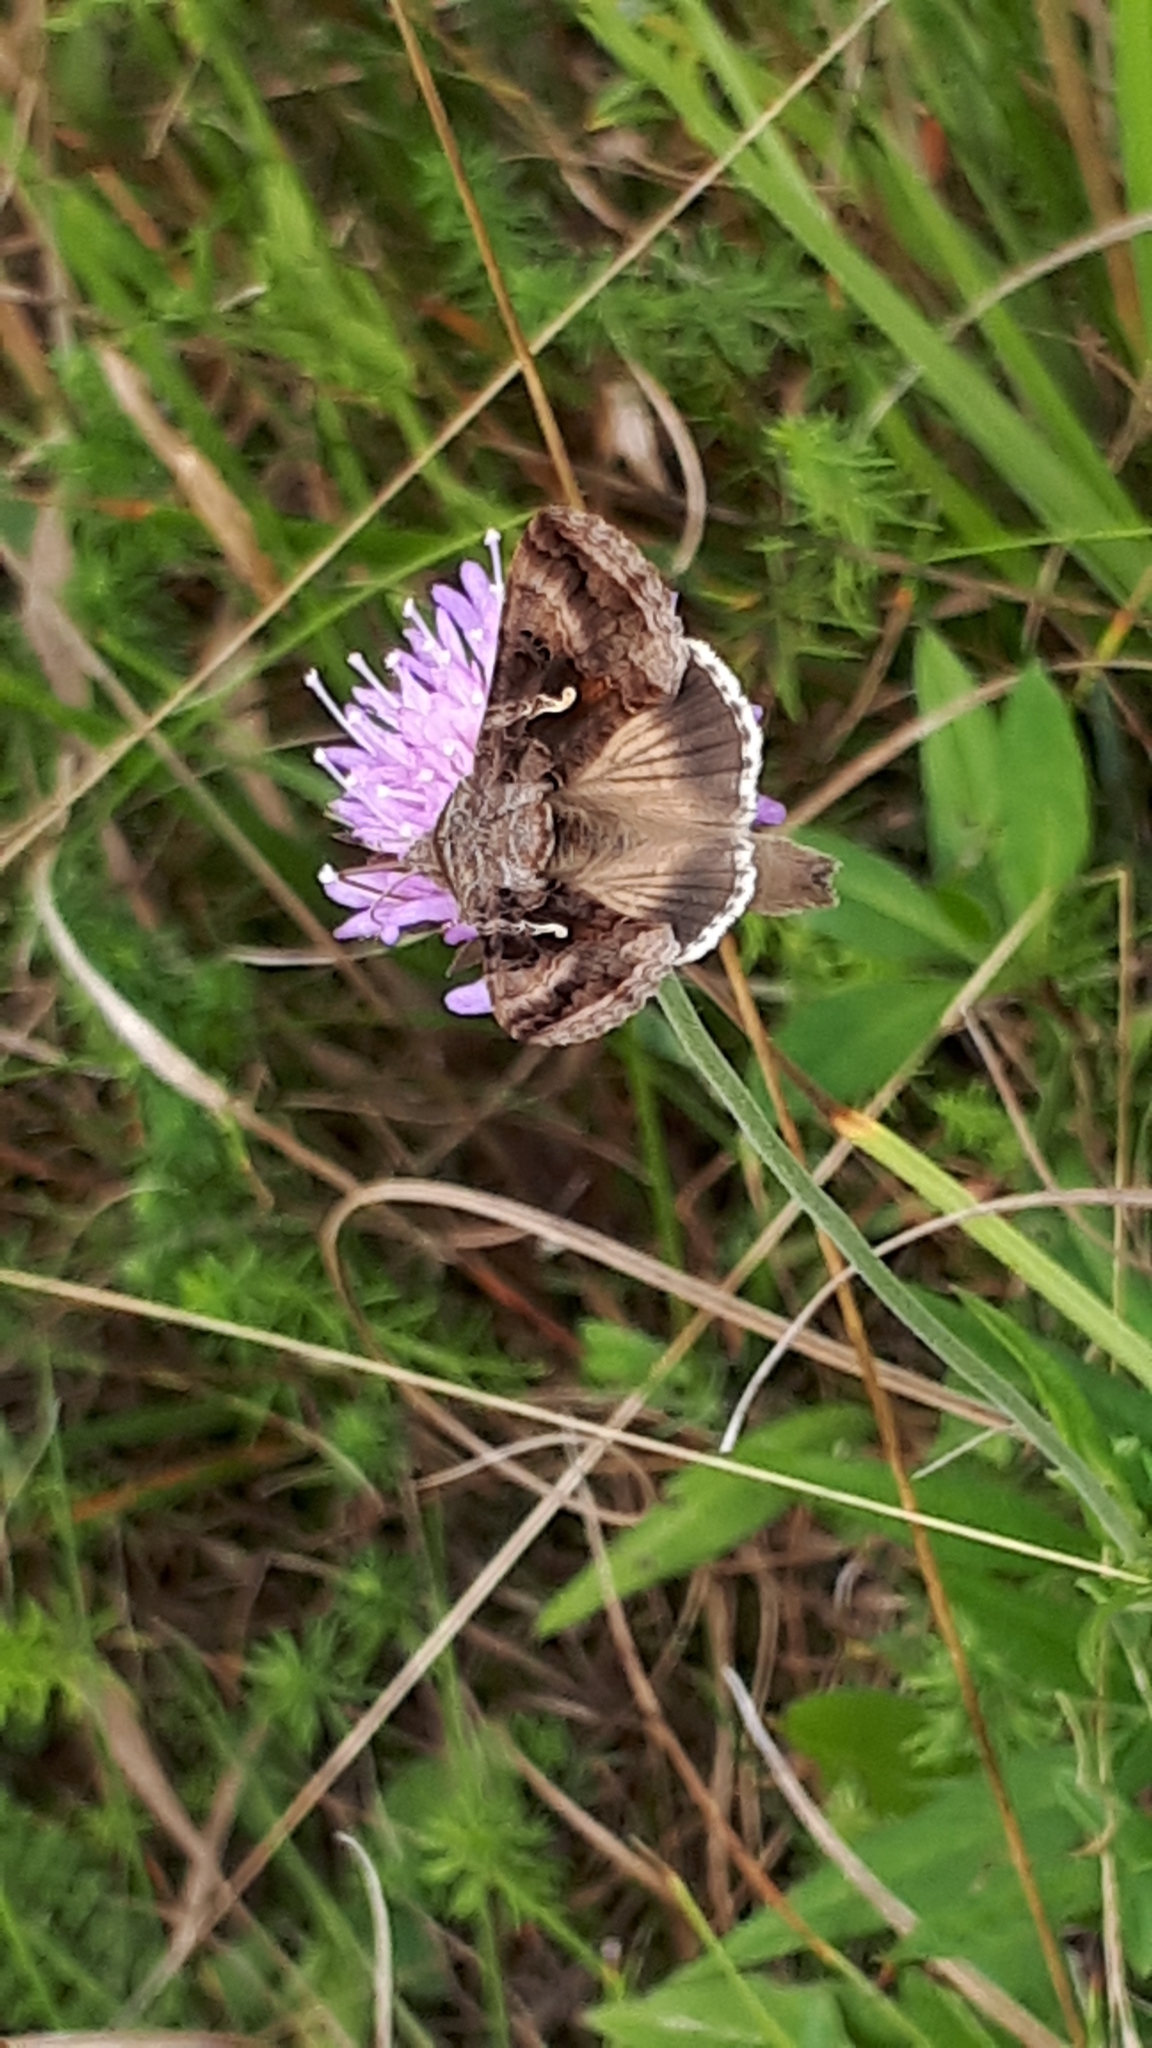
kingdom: Animalia
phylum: Arthropoda
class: Insecta
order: Lepidoptera
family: Noctuidae
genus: Autographa
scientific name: Autographa gamma
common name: Silver y
